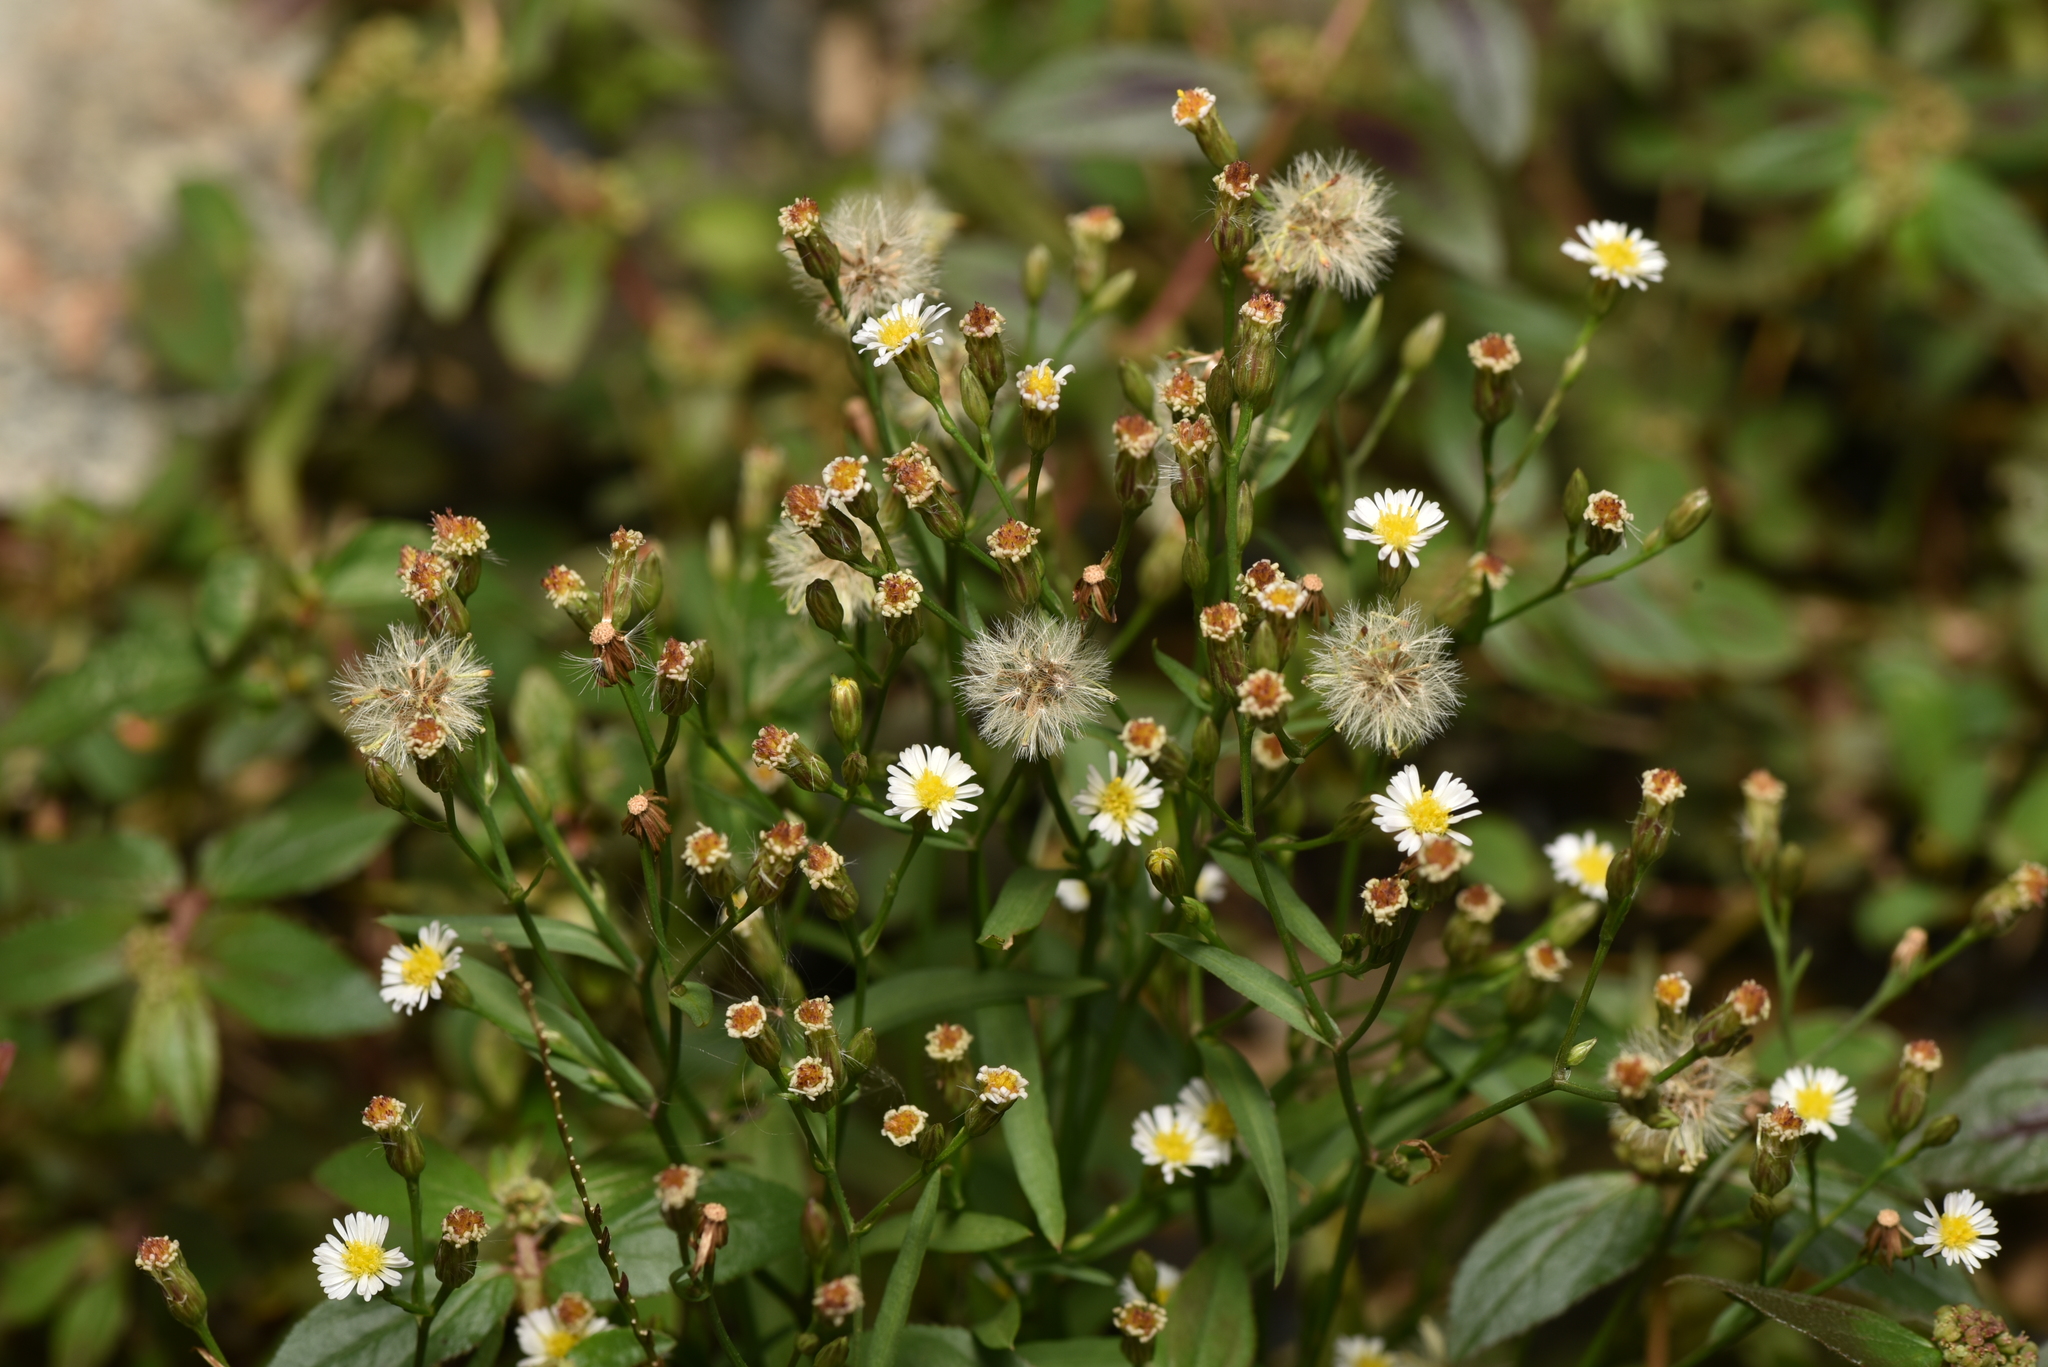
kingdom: Plantae
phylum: Tracheophyta
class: Magnoliopsida
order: Asterales
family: Asteraceae
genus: Symphyotrichum
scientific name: Symphyotrichum subulatum
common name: Annual saltmarsh aster
